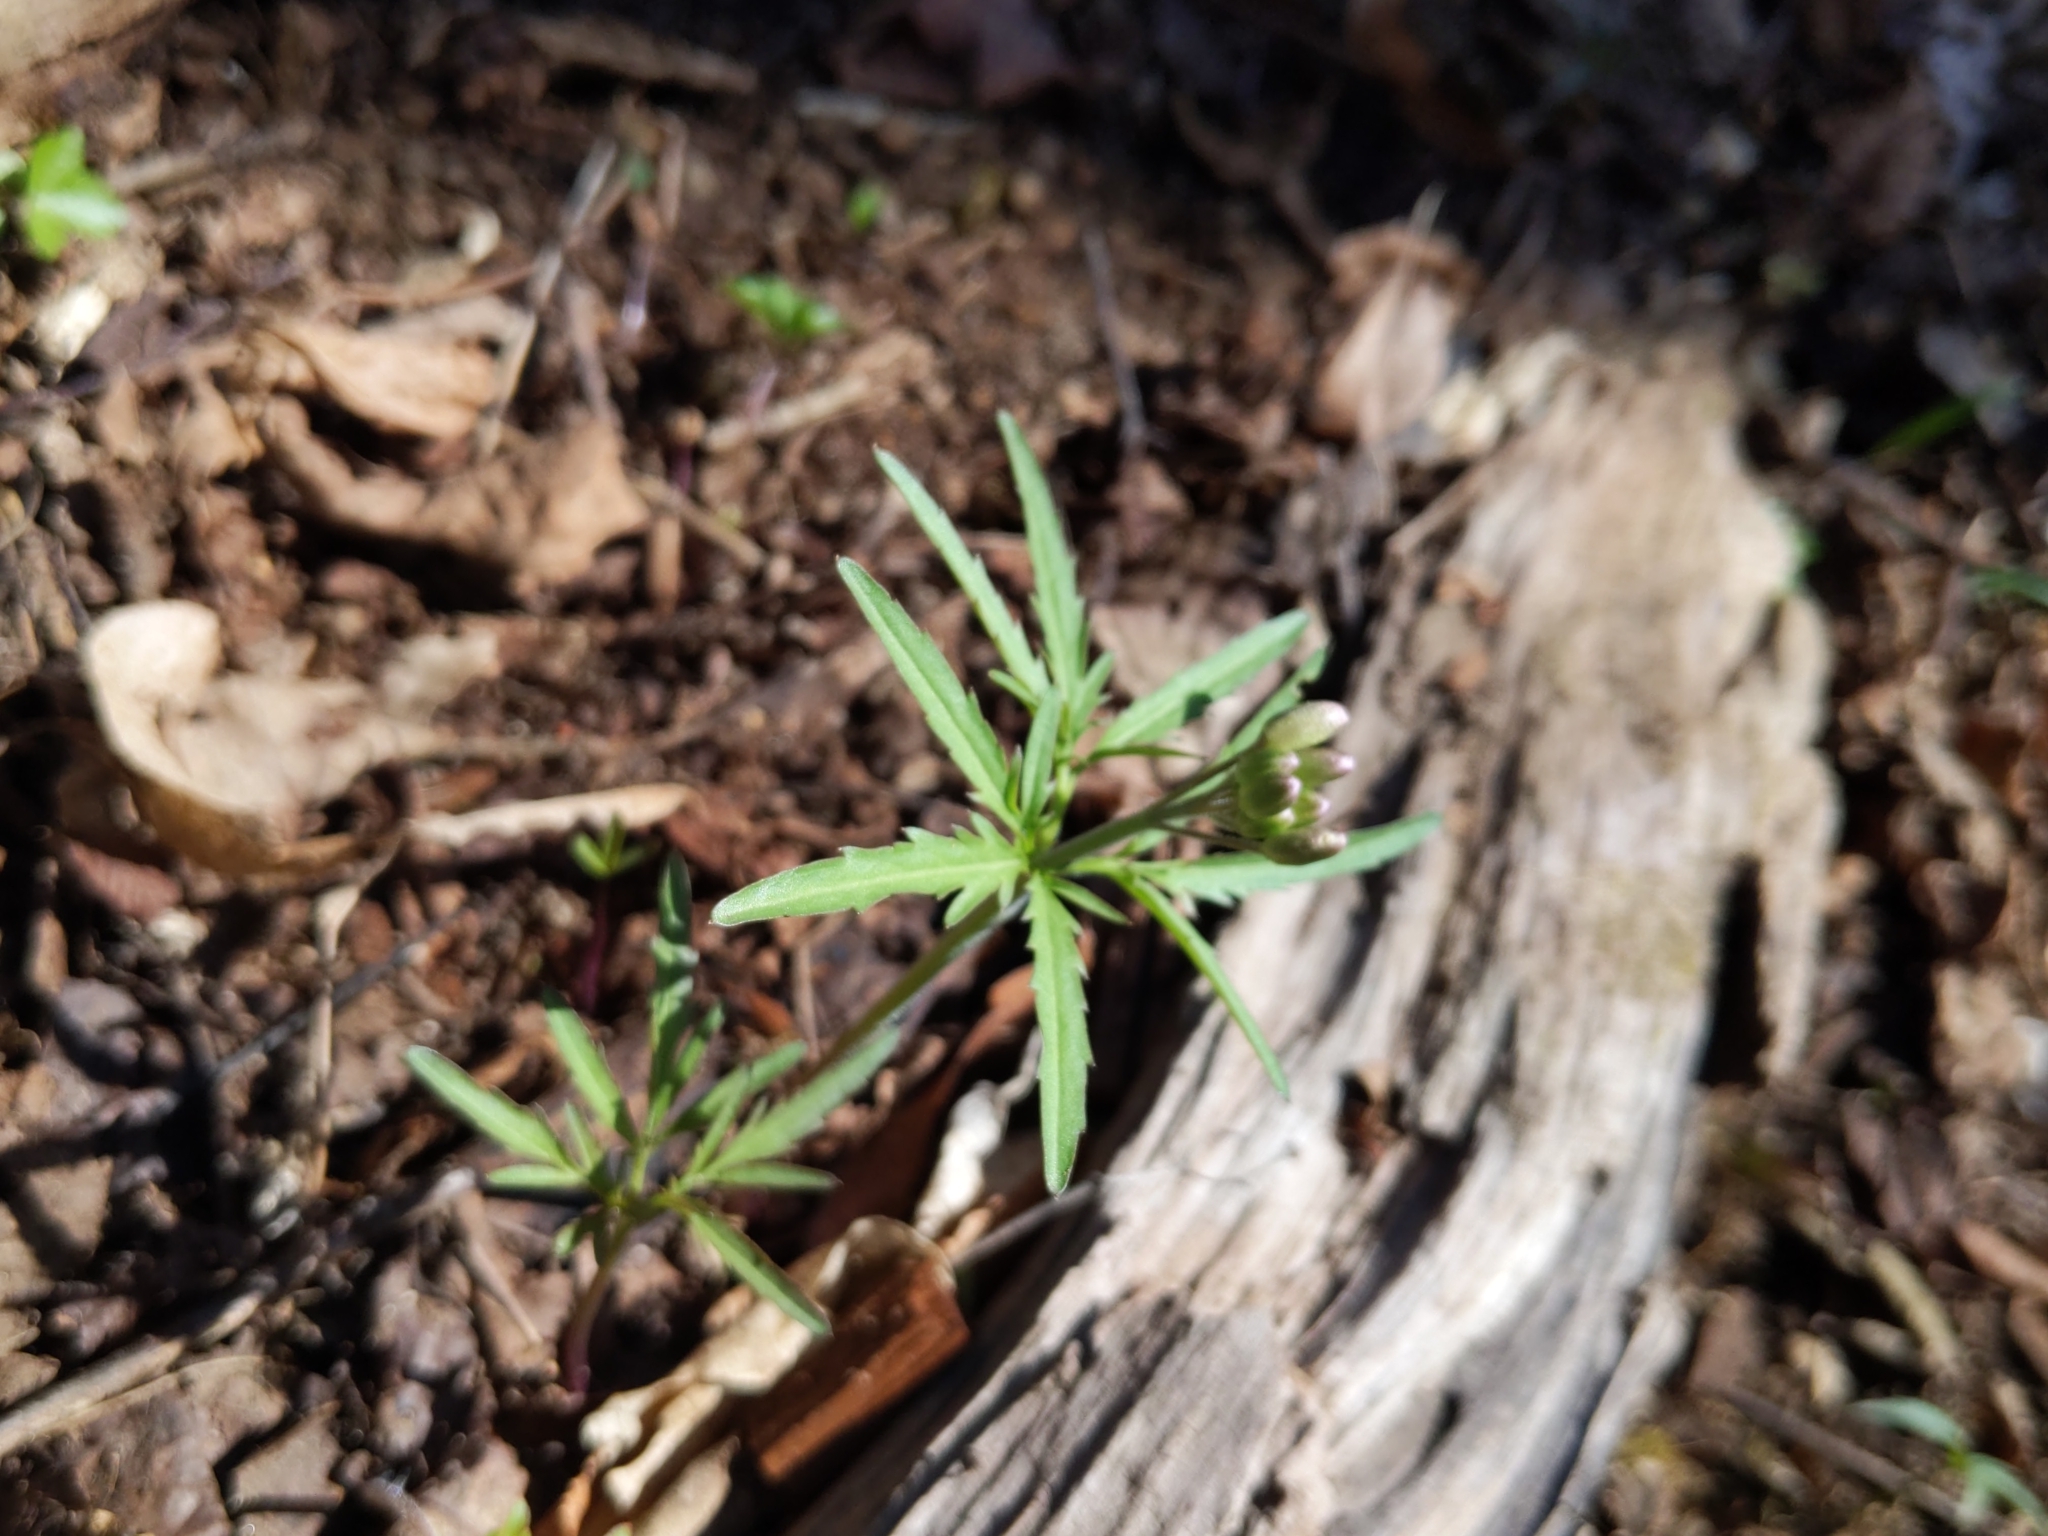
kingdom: Plantae
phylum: Tracheophyta
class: Magnoliopsida
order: Brassicales
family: Brassicaceae
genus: Cardamine
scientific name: Cardamine concatenata
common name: Cut-leaf toothcup
